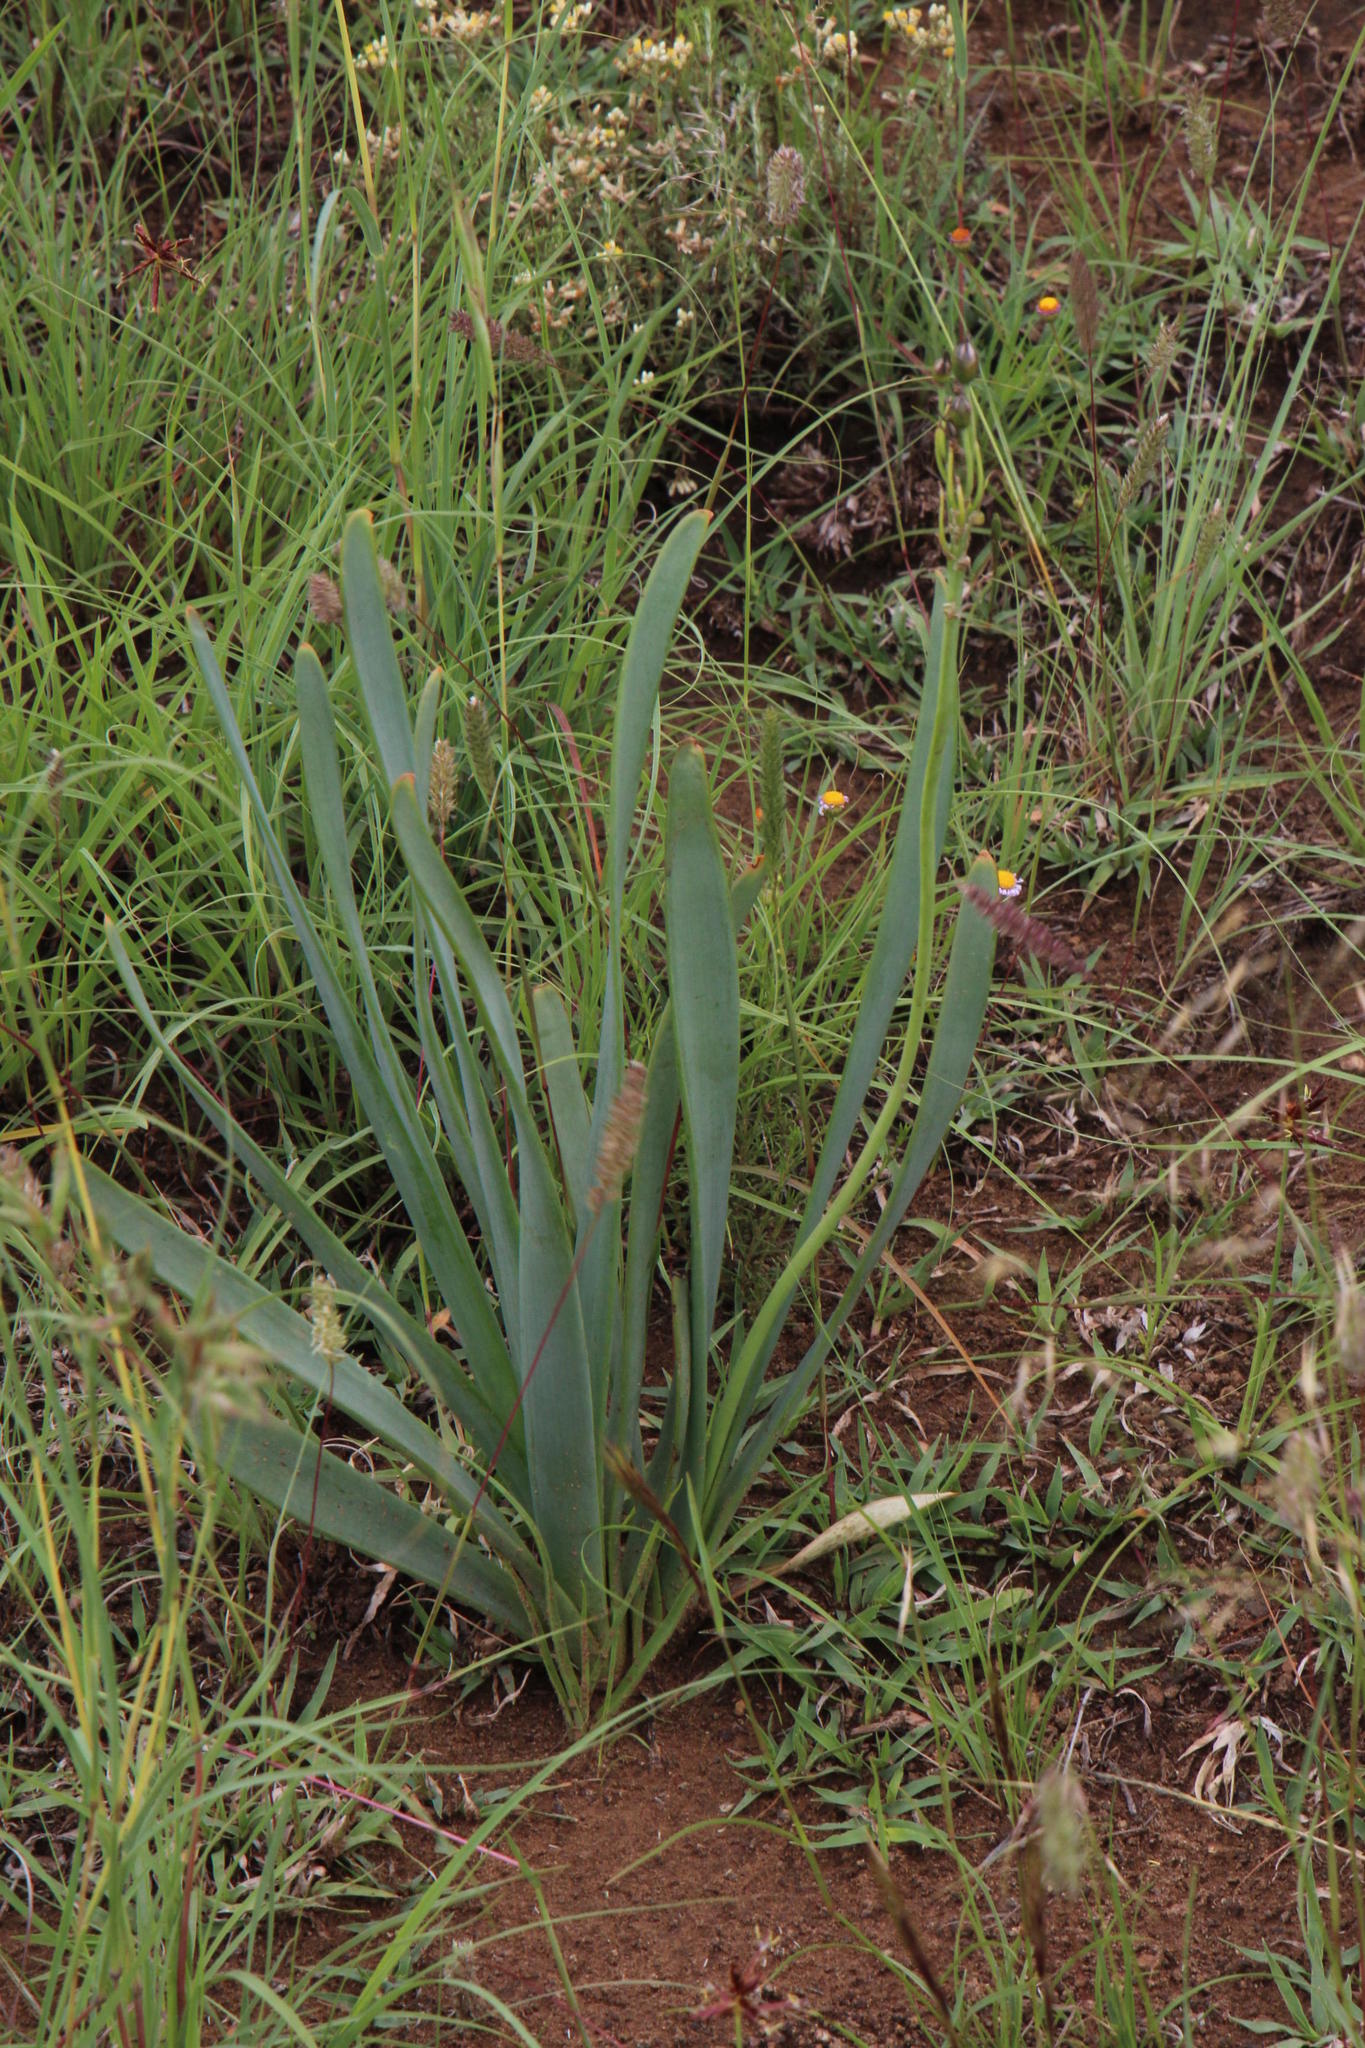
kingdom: Plantae
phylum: Tracheophyta
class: Liliopsida
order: Asparagales
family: Asphodelaceae
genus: Bulbine
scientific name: Bulbine narcissifolia
